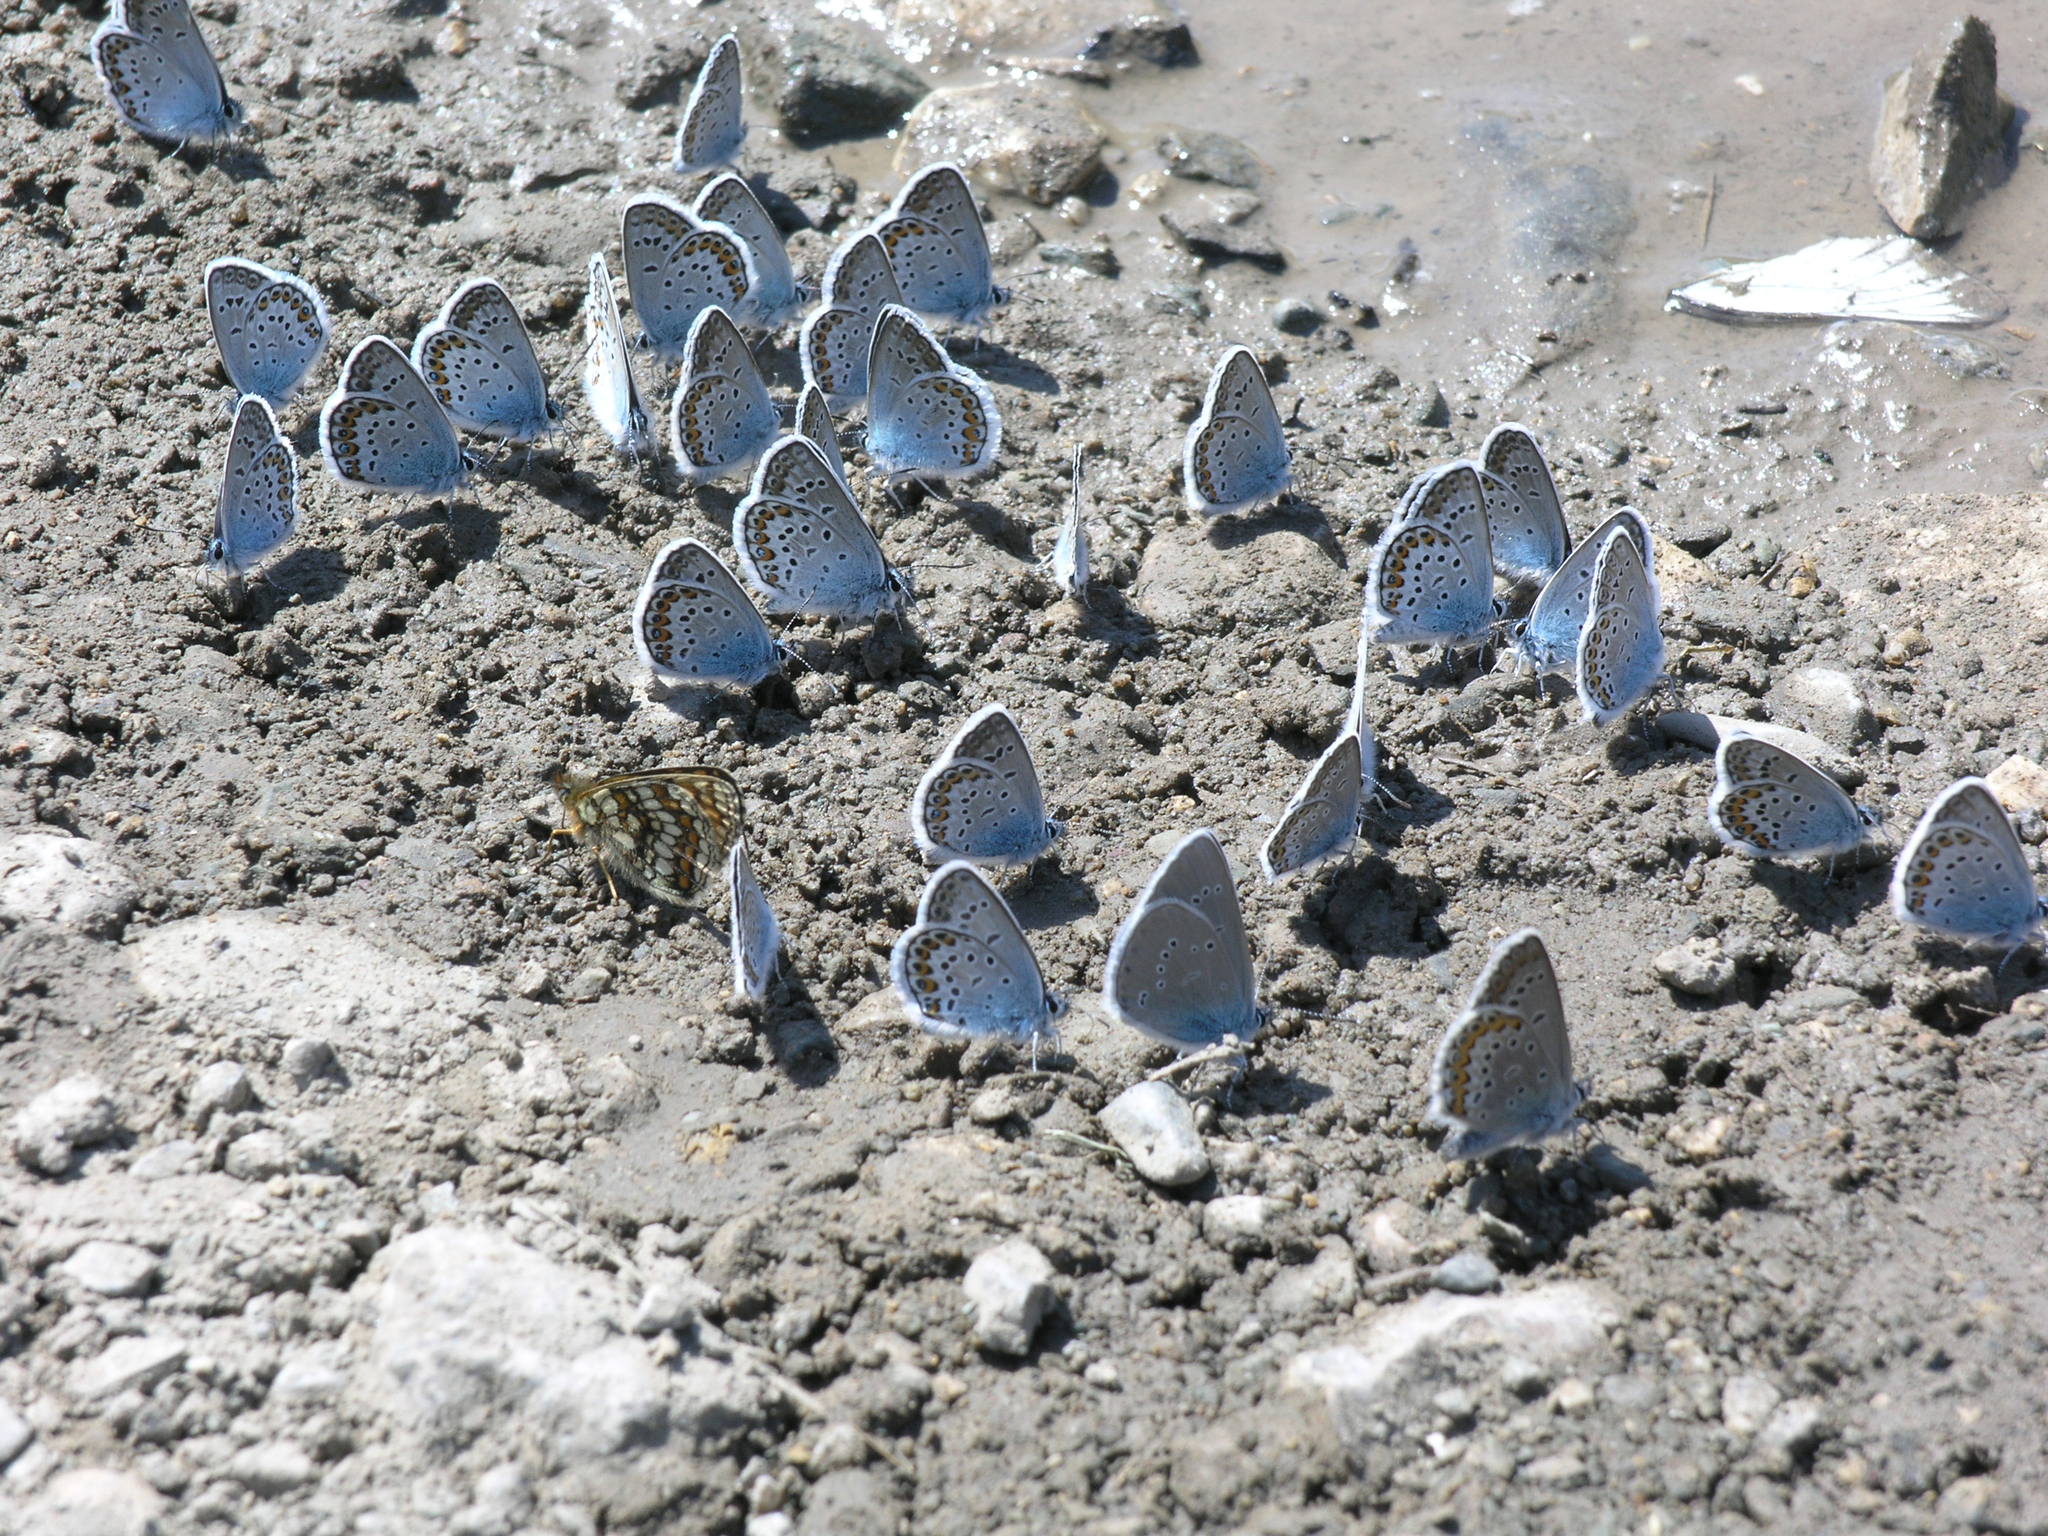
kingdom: Animalia
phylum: Arthropoda
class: Insecta
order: Lepidoptera
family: Lycaenidae
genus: Plebejus
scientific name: Plebejus argus
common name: Silver-studded blue
